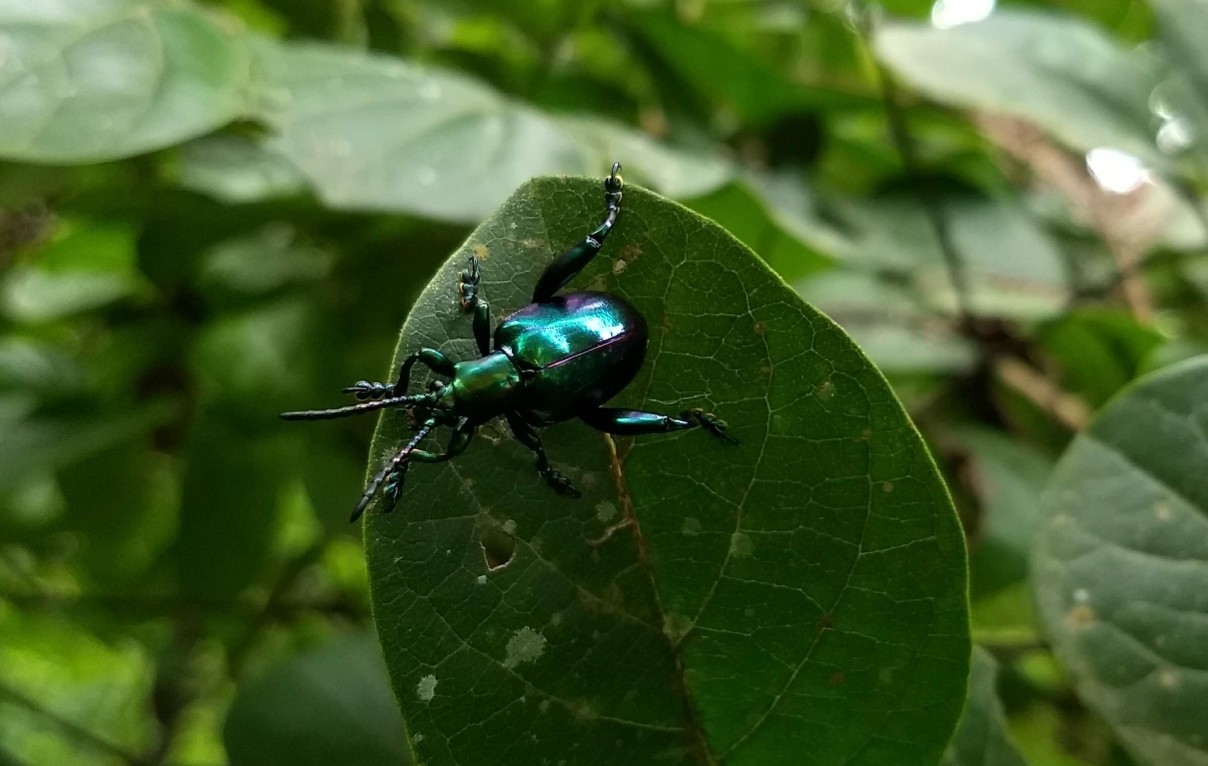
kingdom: Animalia
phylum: Arthropoda
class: Insecta
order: Coleoptera
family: Chrysomelidae
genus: Sagra
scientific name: Sagra femorata
